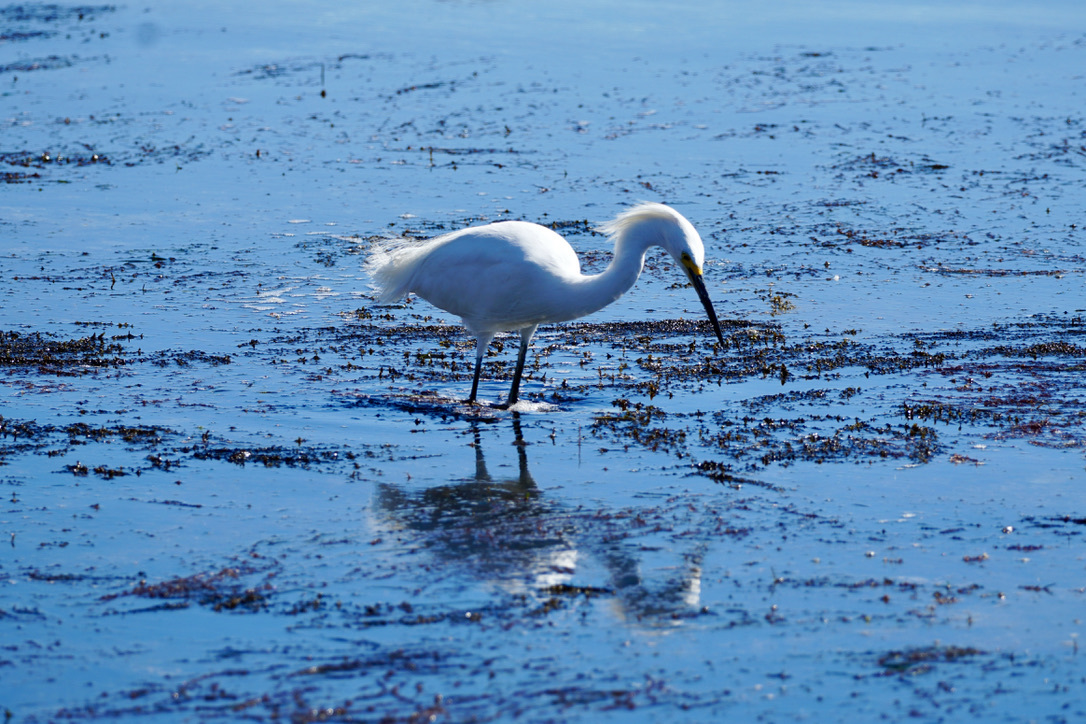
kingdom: Animalia
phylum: Chordata
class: Aves
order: Pelecaniformes
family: Ardeidae
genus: Egretta
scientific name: Egretta thula
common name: Snowy egret
